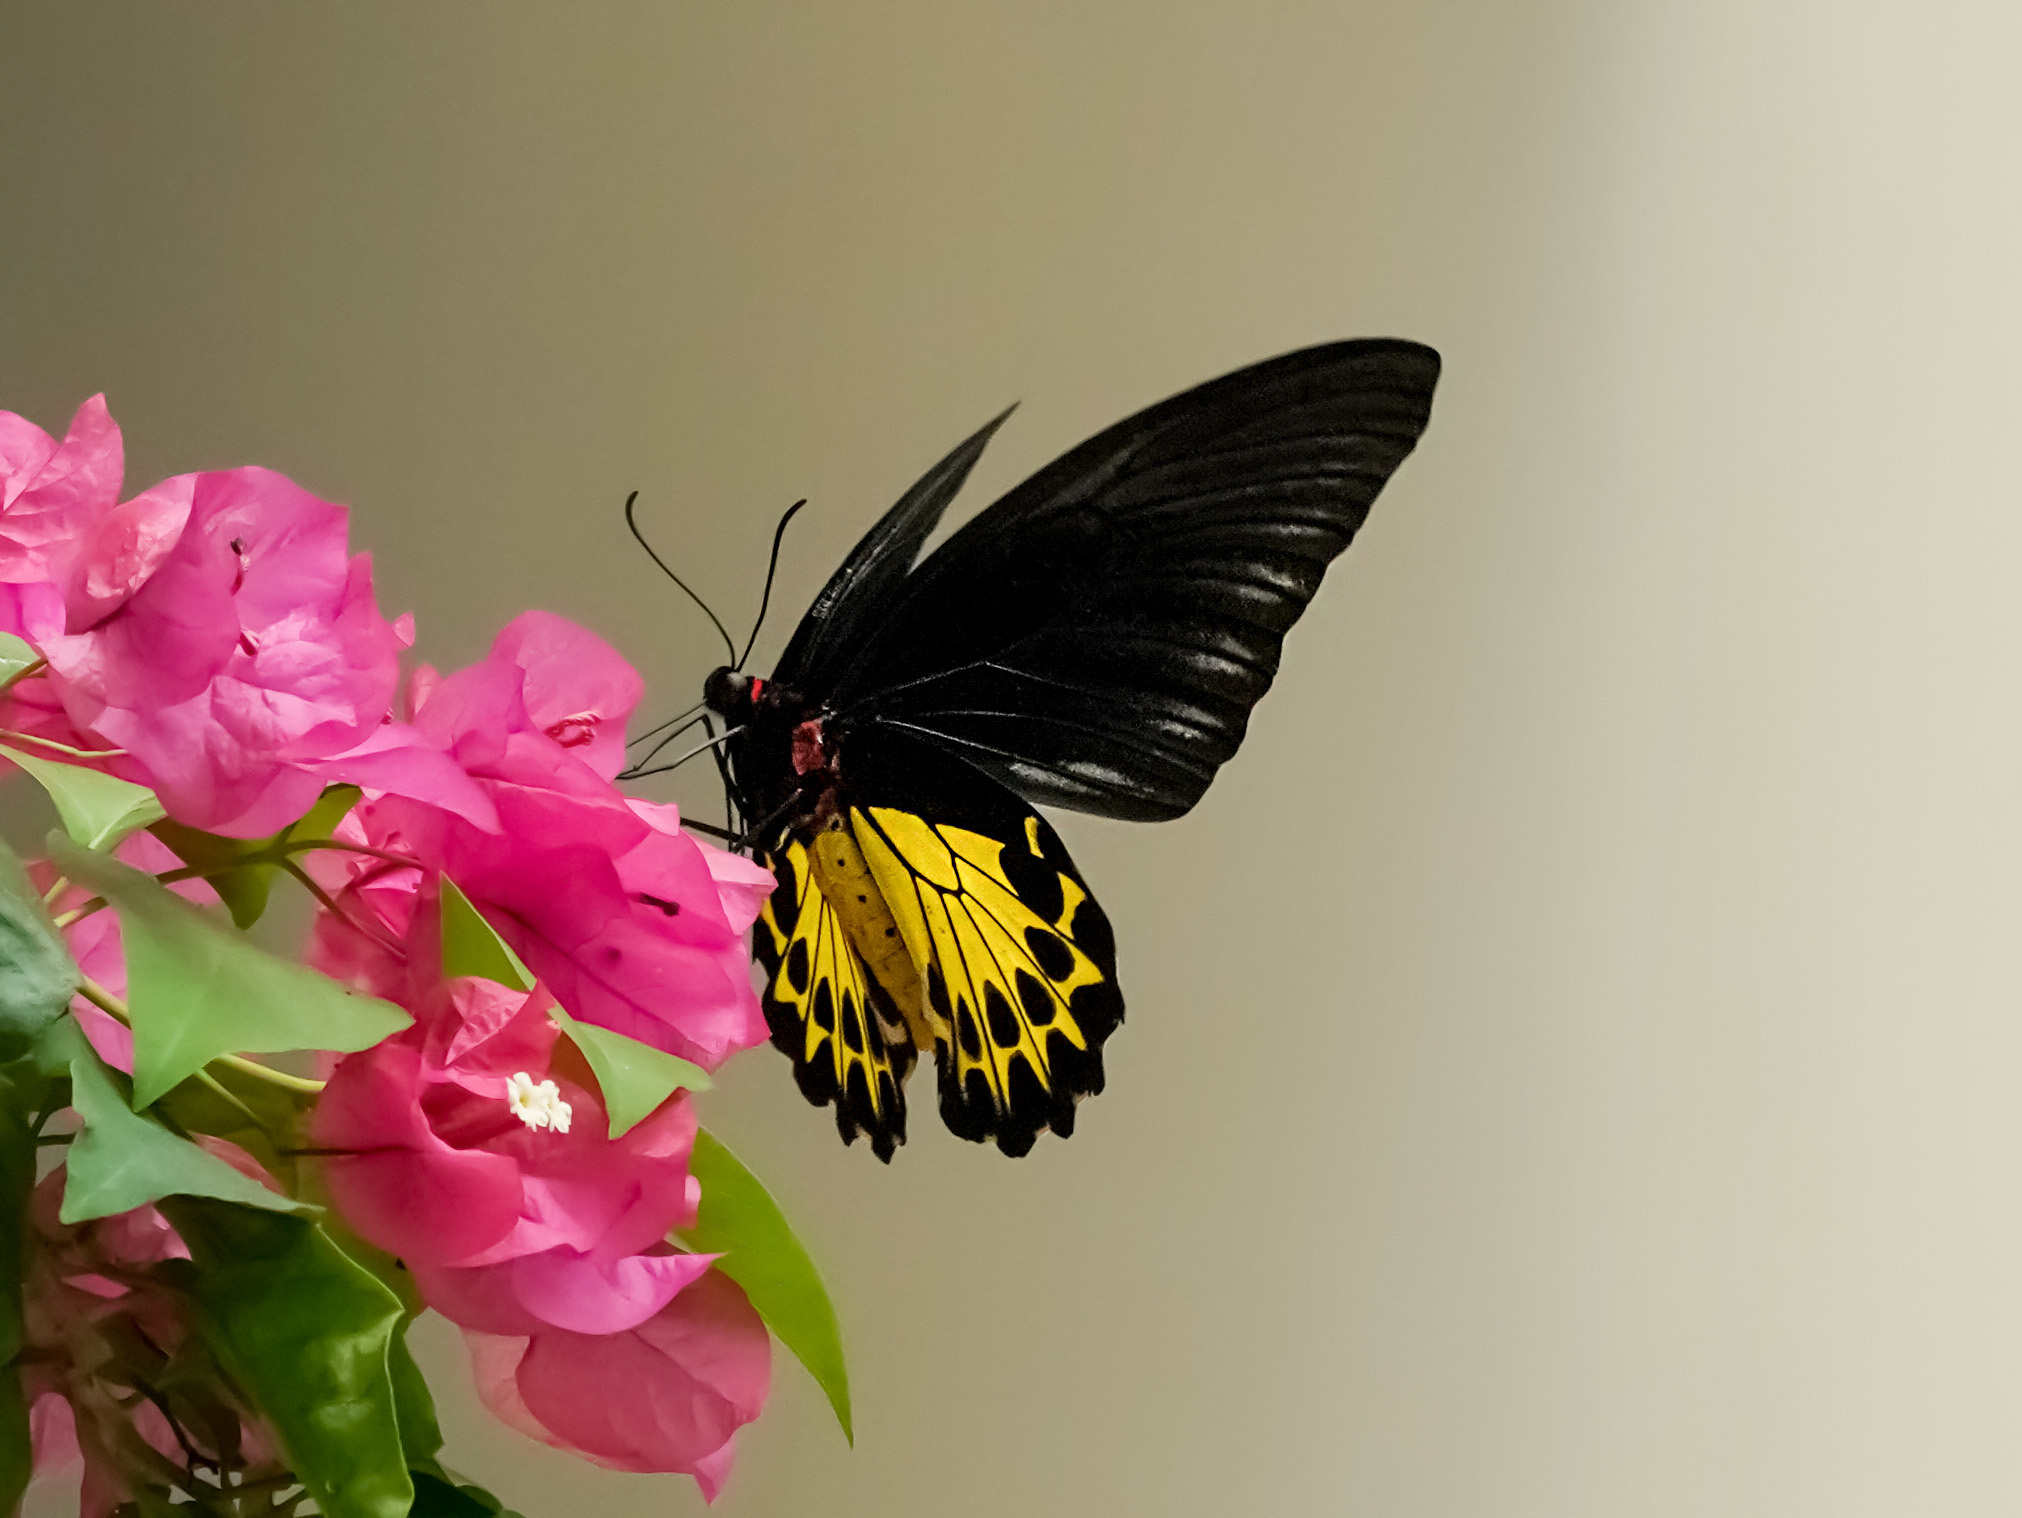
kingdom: Animalia
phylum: Arthropoda
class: Insecta
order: Lepidoptera
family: Papilionidae
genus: Troides
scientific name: Troides helena
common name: Common birdwing
